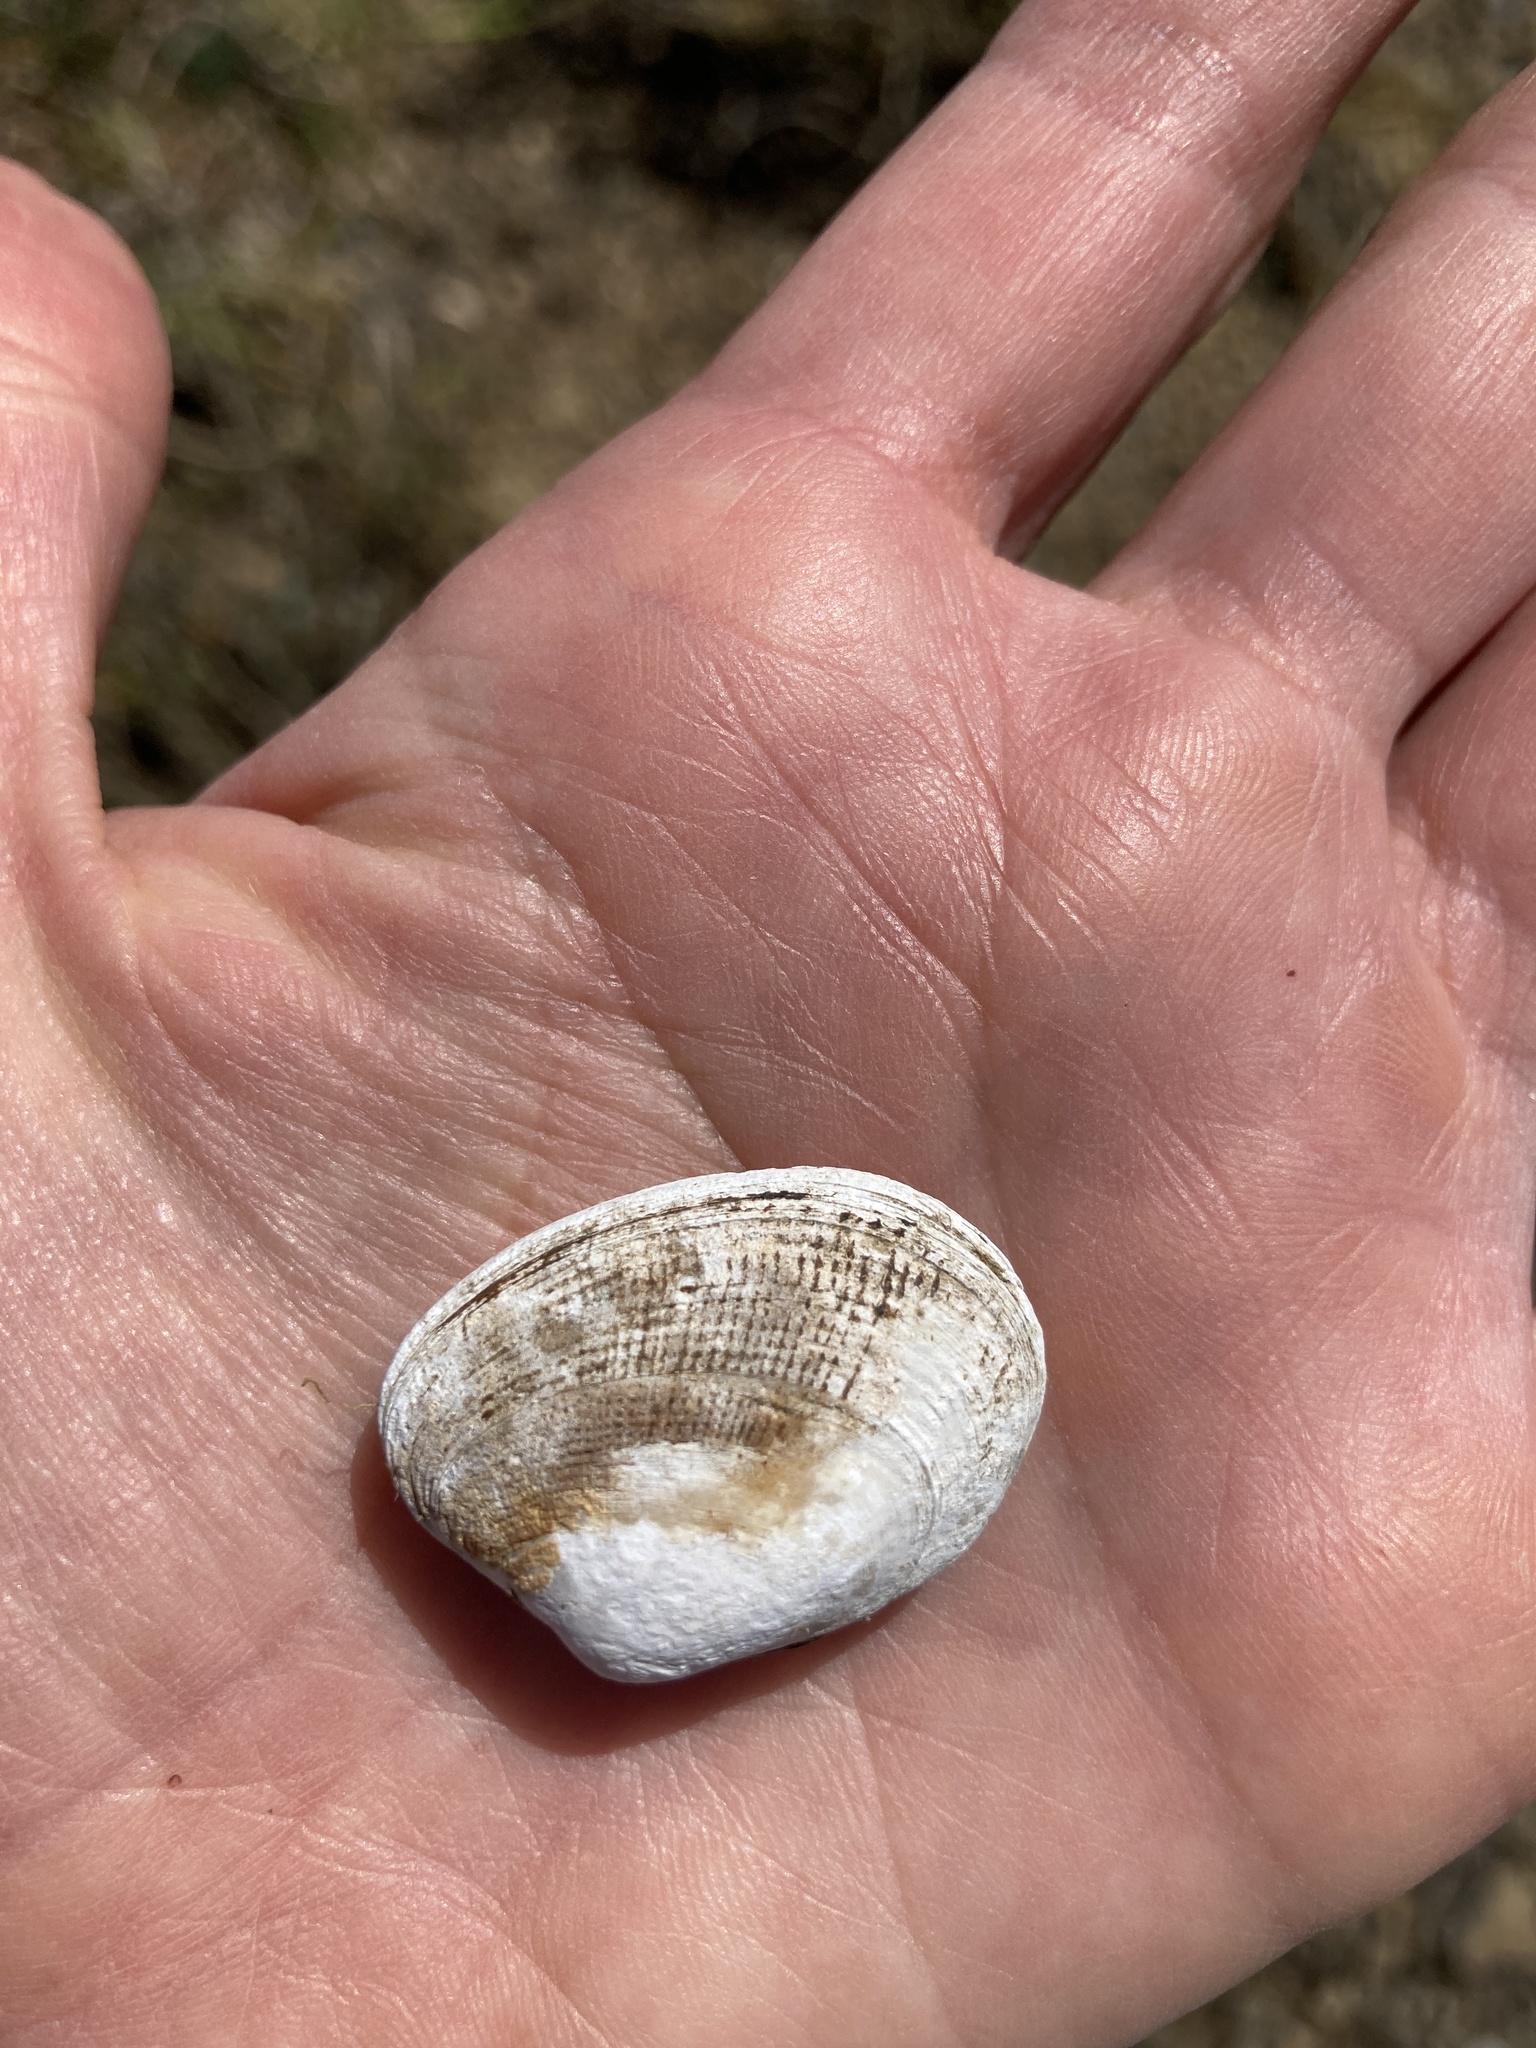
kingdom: Animalia
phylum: Mollusca
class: Bivalvia
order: Venerida
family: Veneridae
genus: Ruditapes
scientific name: Ruditapes philippinarum
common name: Manila clam
